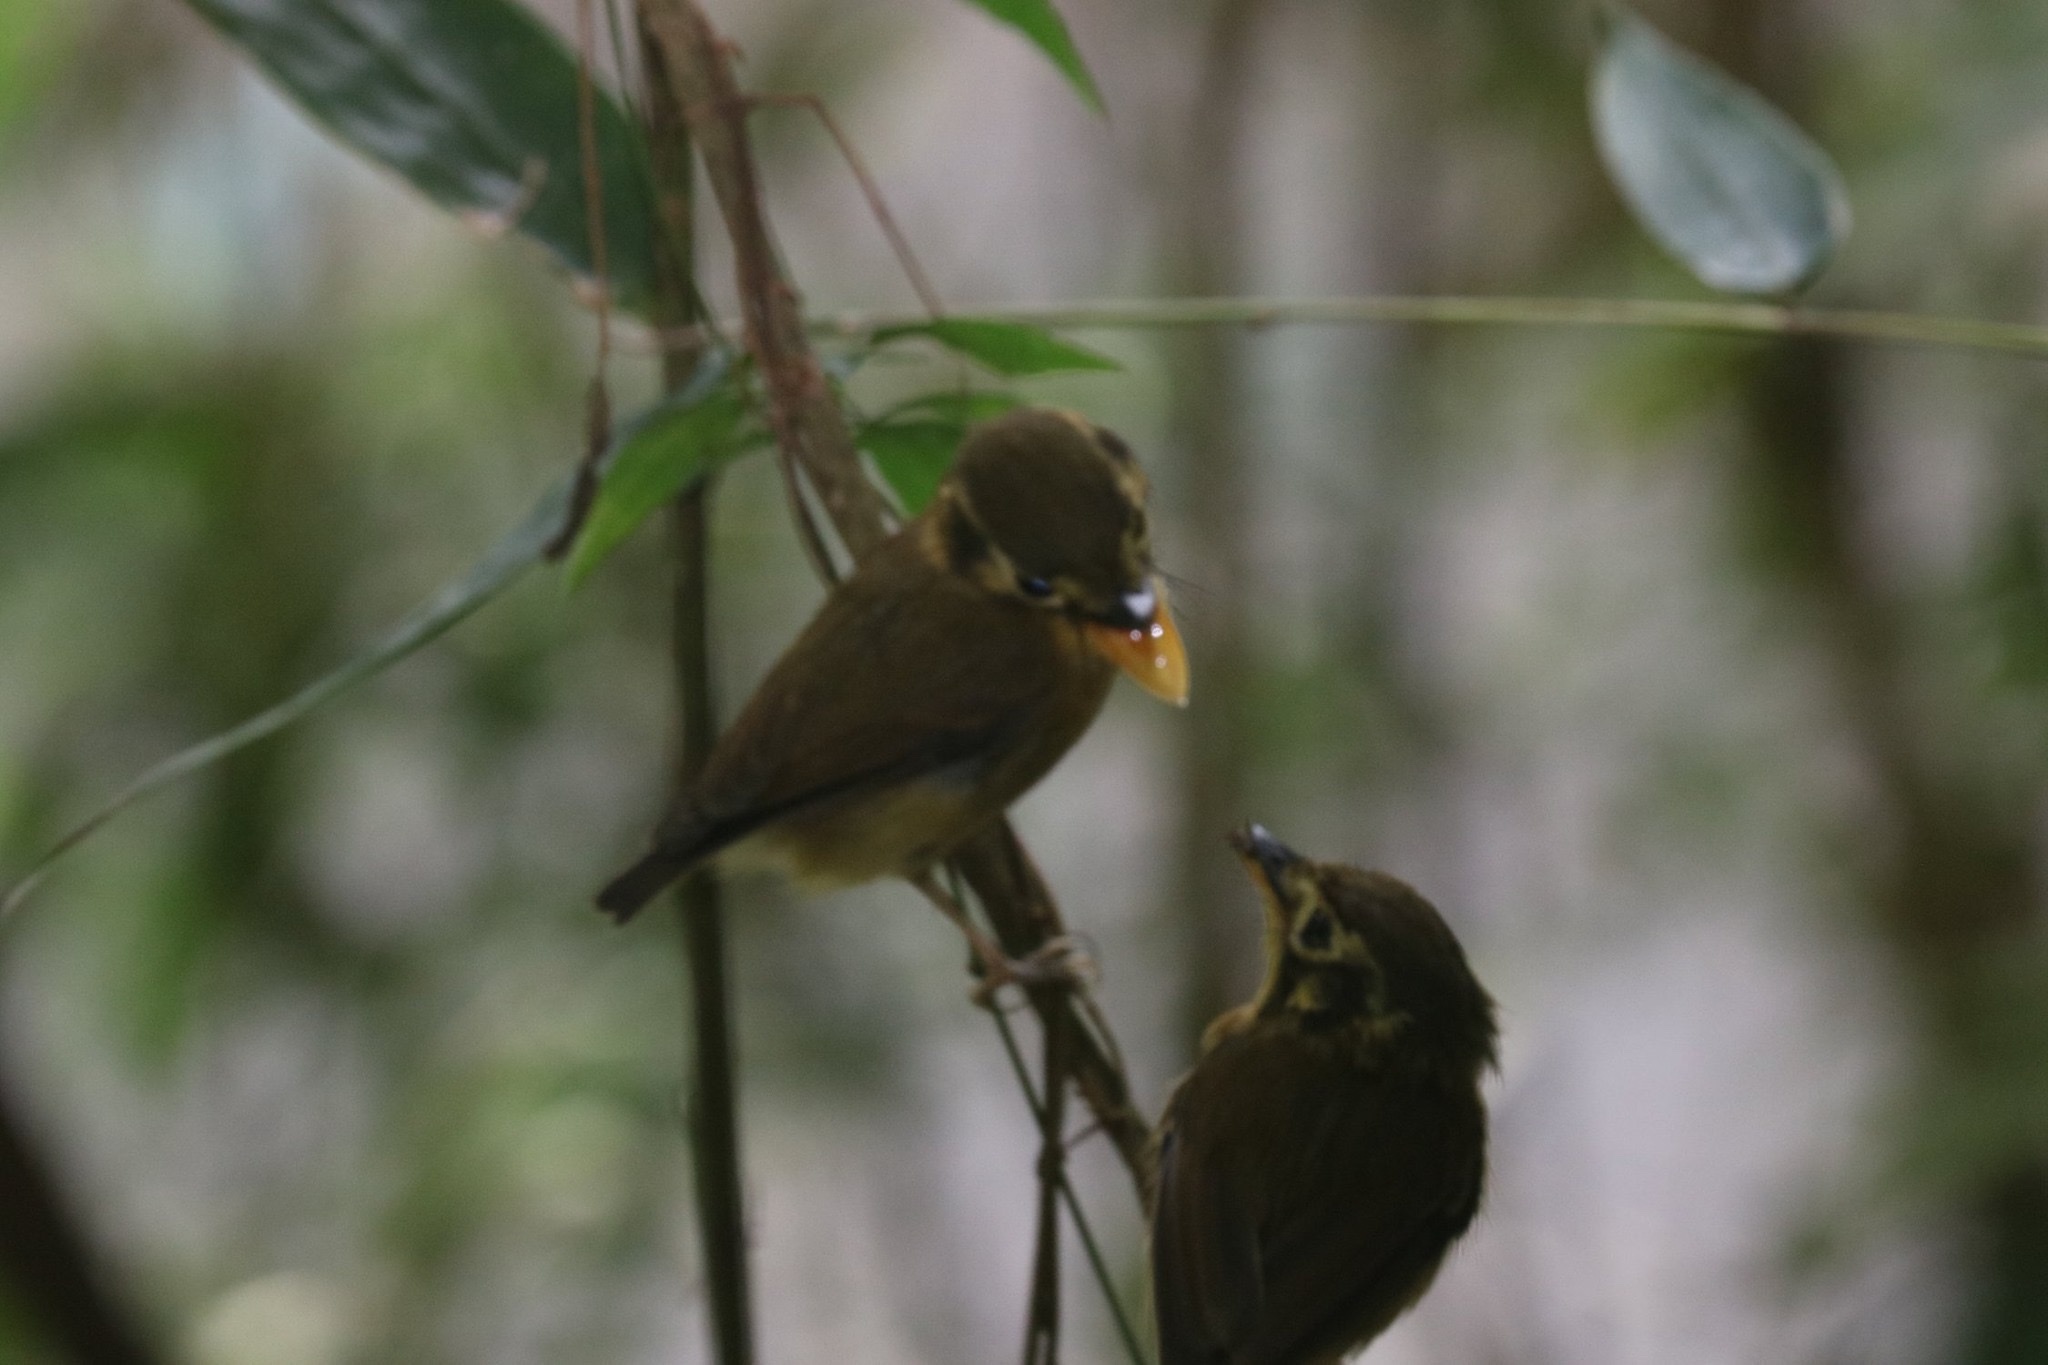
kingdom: Animalia
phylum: Chordata
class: Aves
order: Passeriformes
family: Tyrannidae
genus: Platyrinchus
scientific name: Platyrinchus mystaceus
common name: White-throated spadebill
